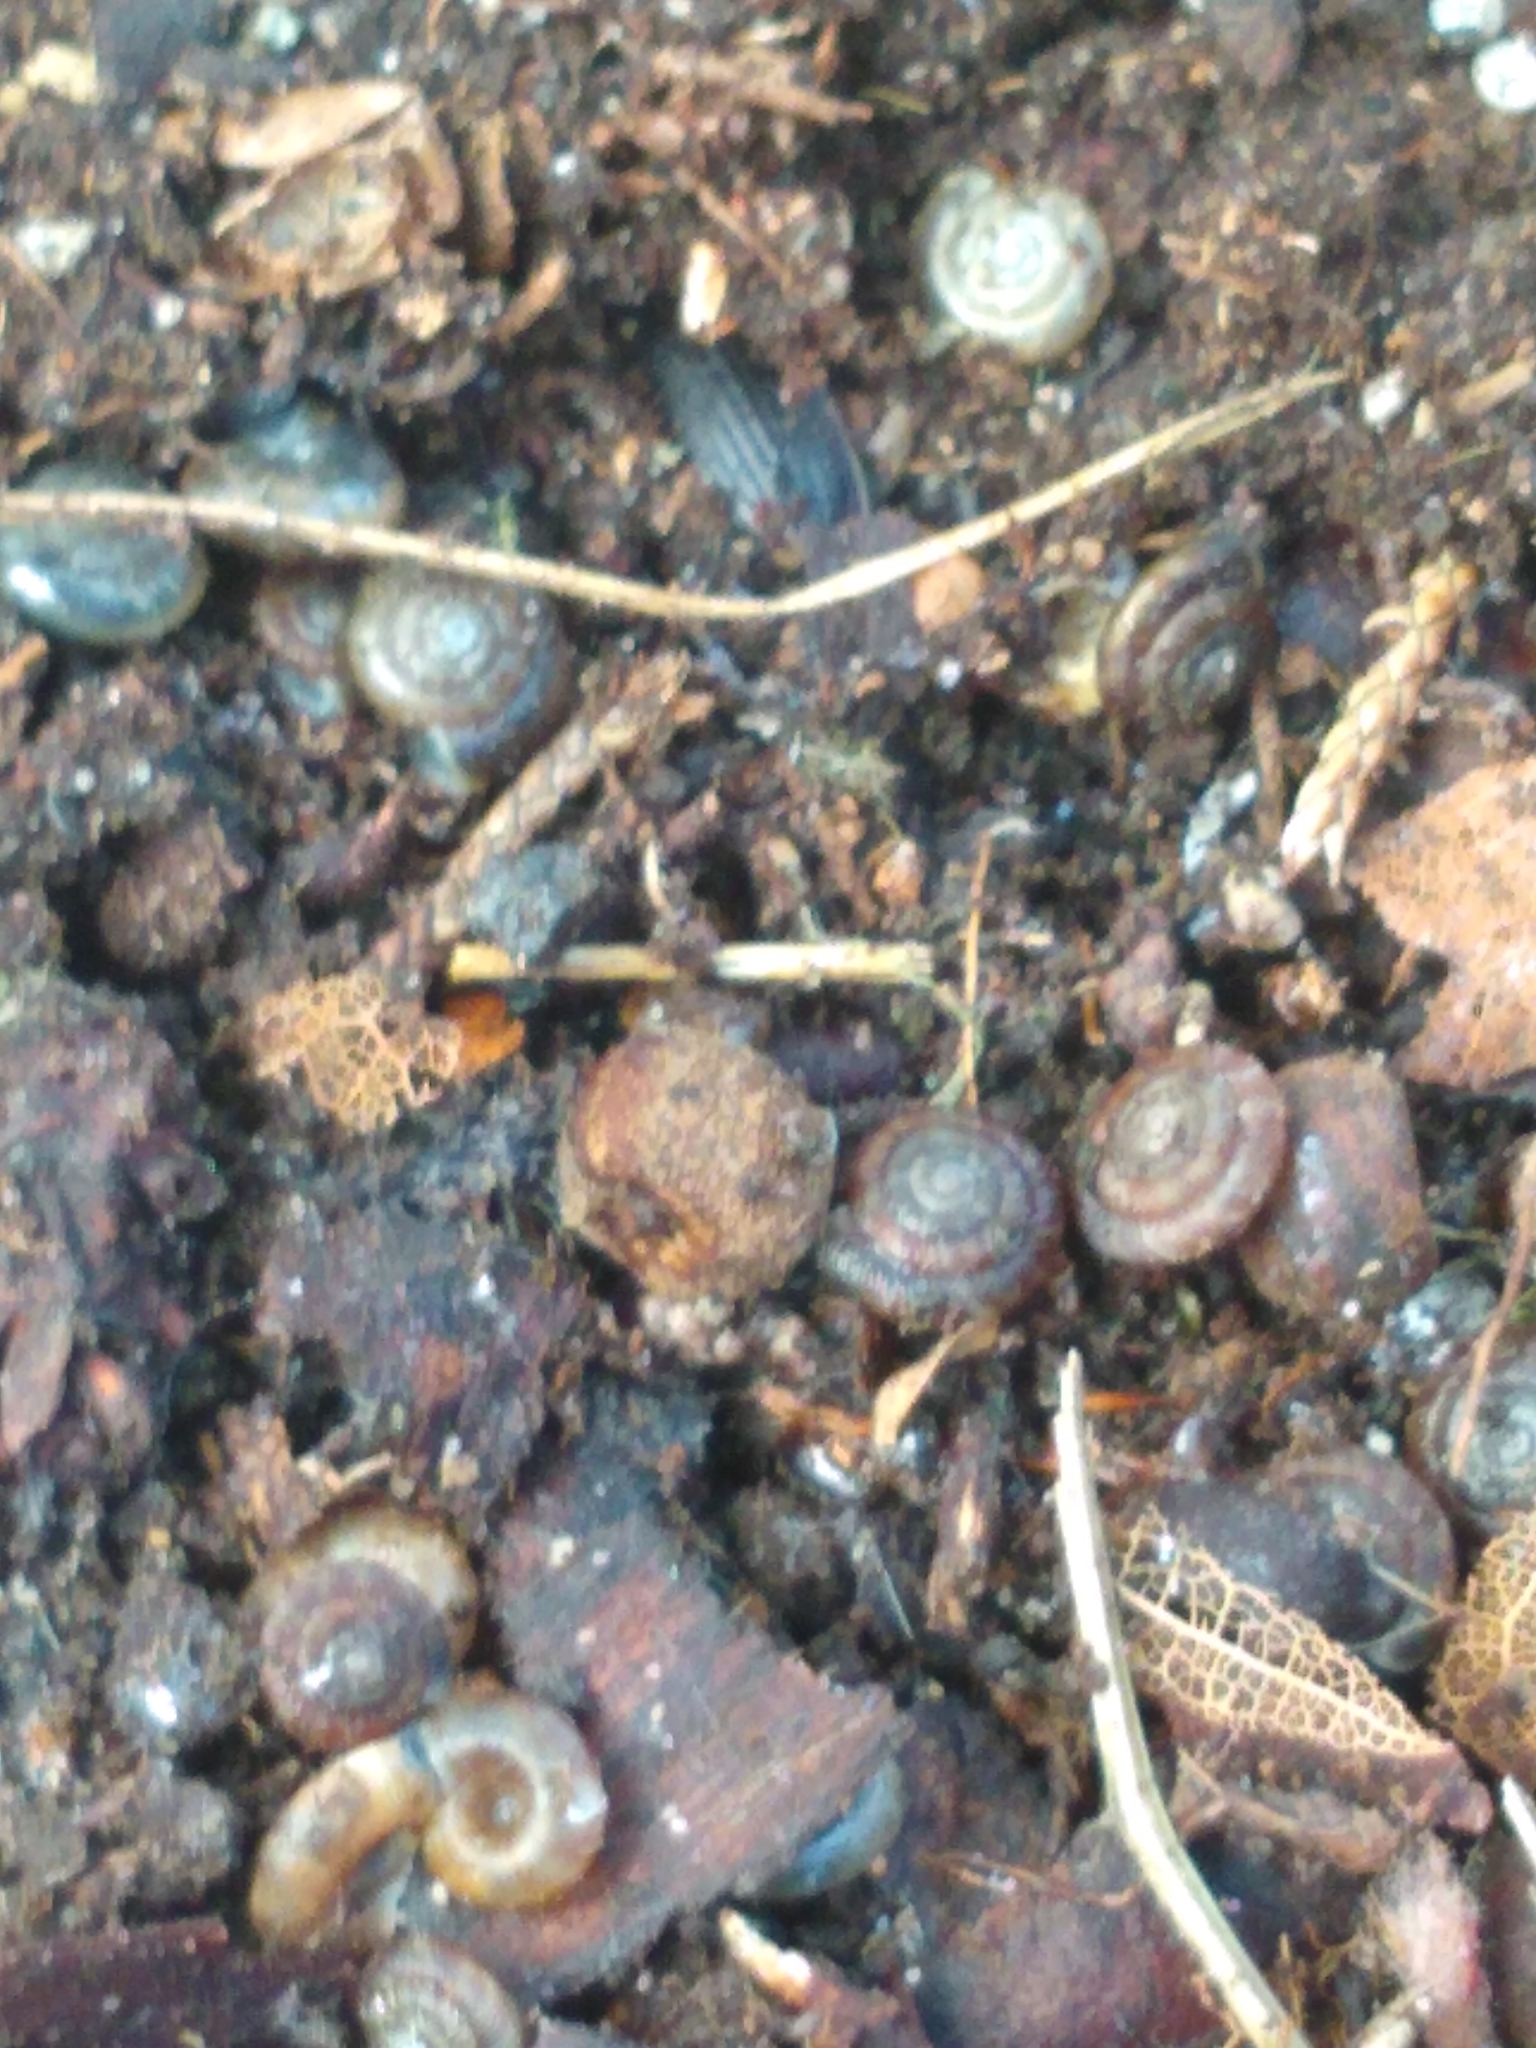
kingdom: Animalia
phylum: Mollusca
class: Gastropoda
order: Stylommatophora
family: Discidae
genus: Discus
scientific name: Discus rotundatus
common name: Rounded snail
